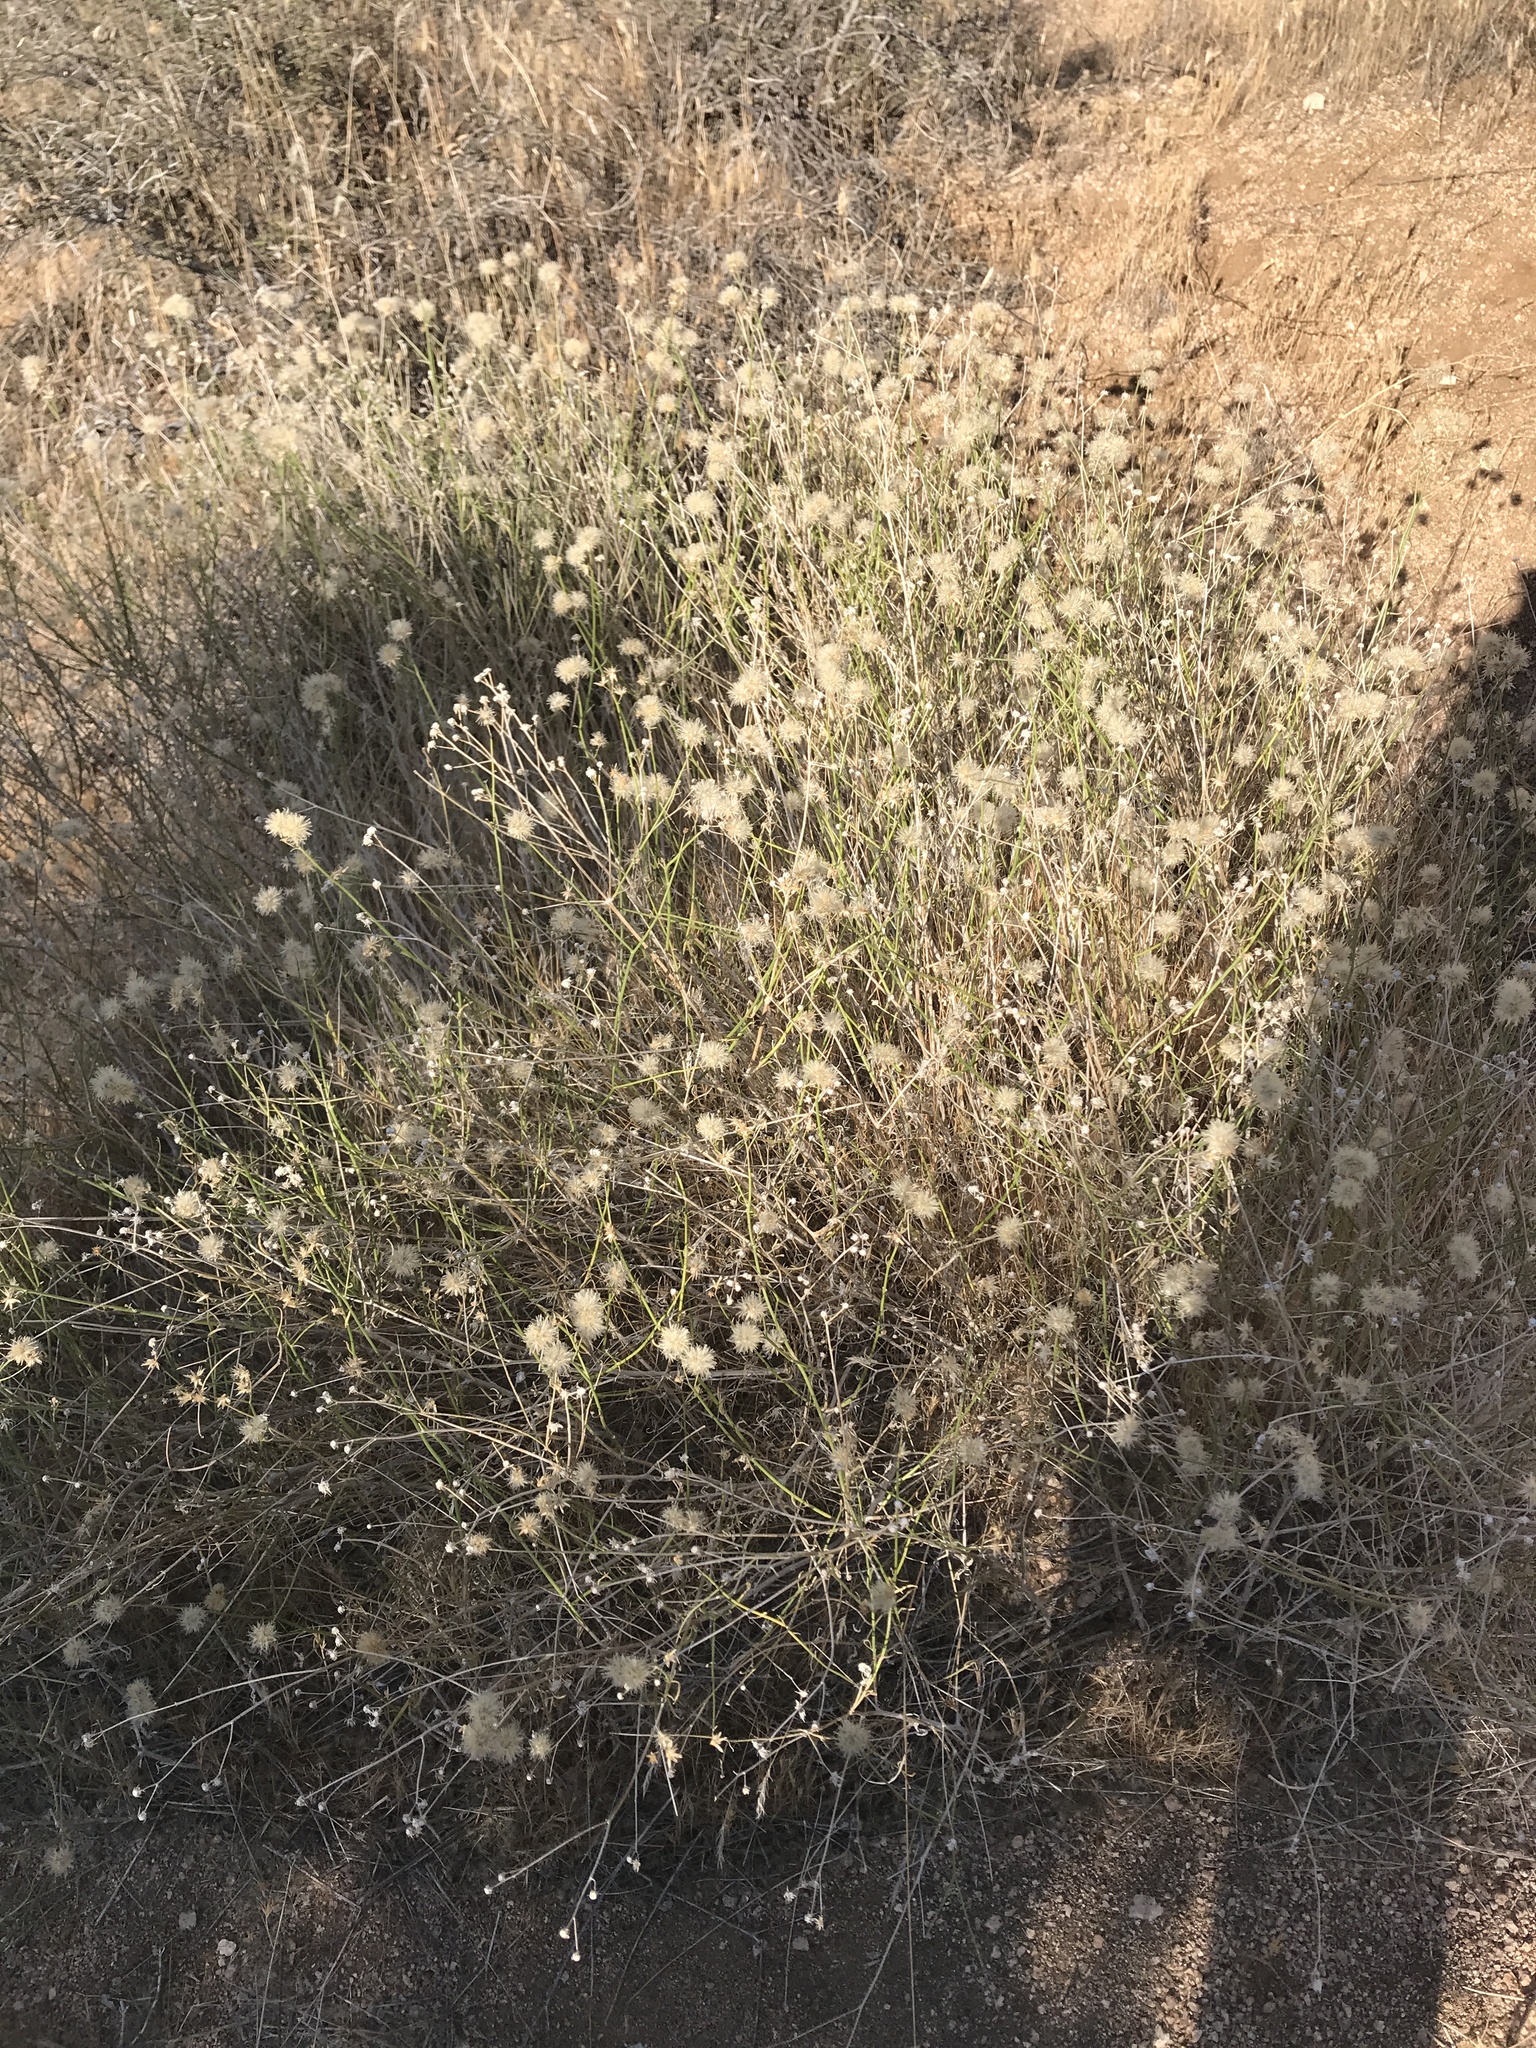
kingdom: Plantae
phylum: Tracheophyta
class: Magnoliopsida
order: Asterales
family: Asteraceae
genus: Bebbia
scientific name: Bebbia juncea
